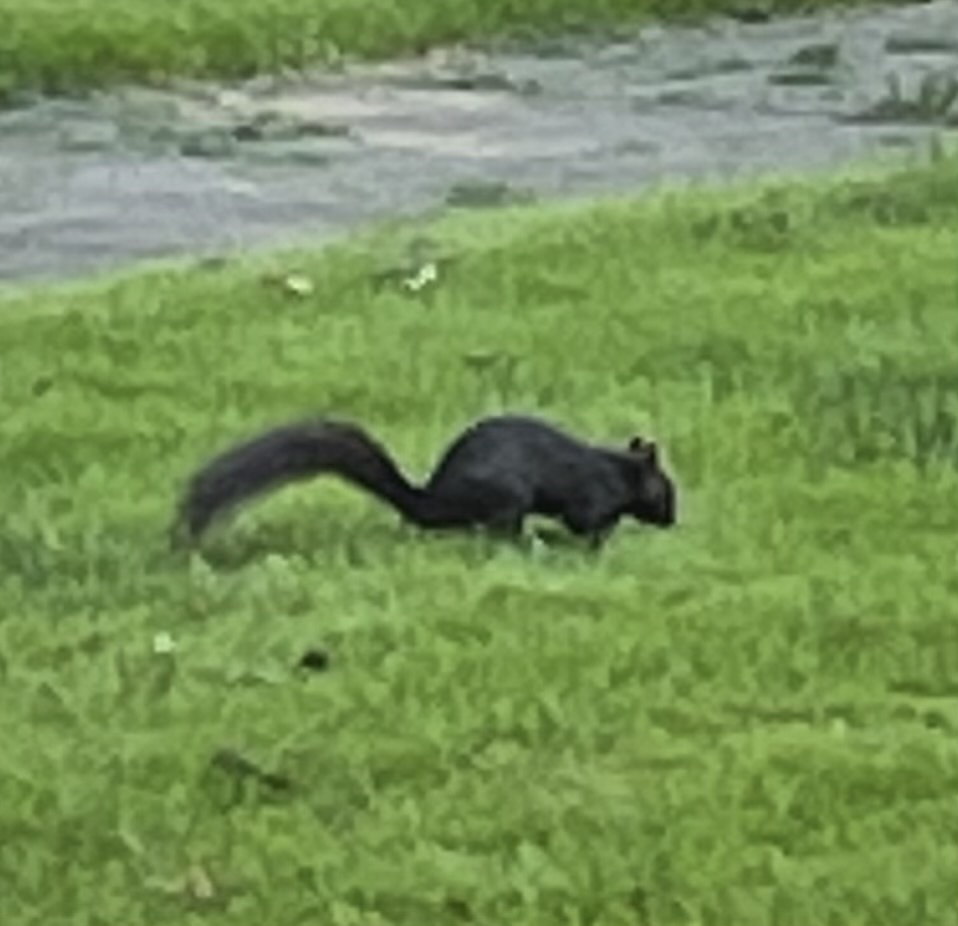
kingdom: Animalia
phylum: Chordata
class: Mammalia
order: Rodentia
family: Sciuridae
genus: Sciurus
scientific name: Sciurus carolinensis
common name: Eastern gray squirrel
